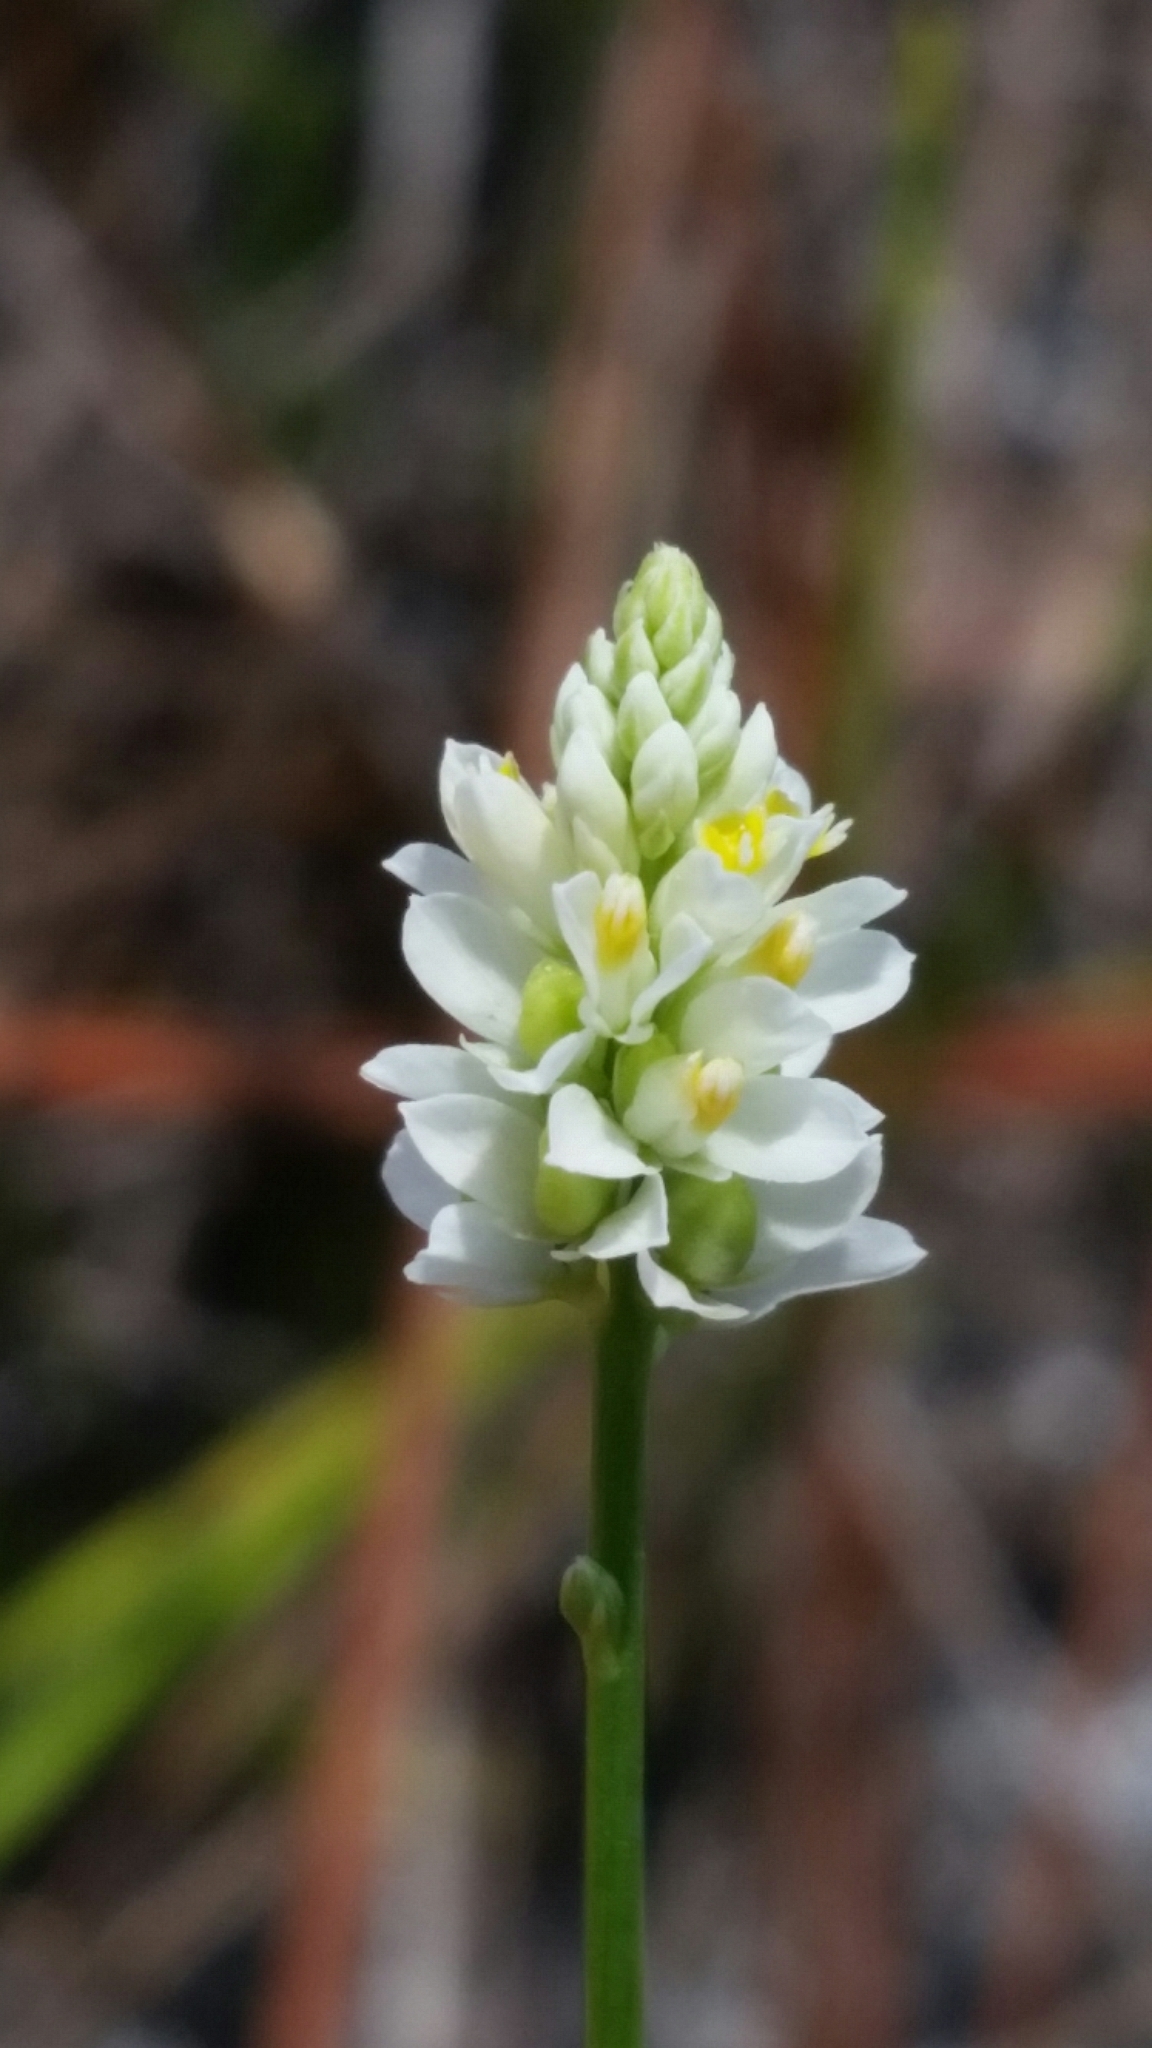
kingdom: Plantae
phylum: Tracheophyta
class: Magnoliopsida
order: Fabales
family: Polygalaceae
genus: Polygala
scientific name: Polygala setacea
